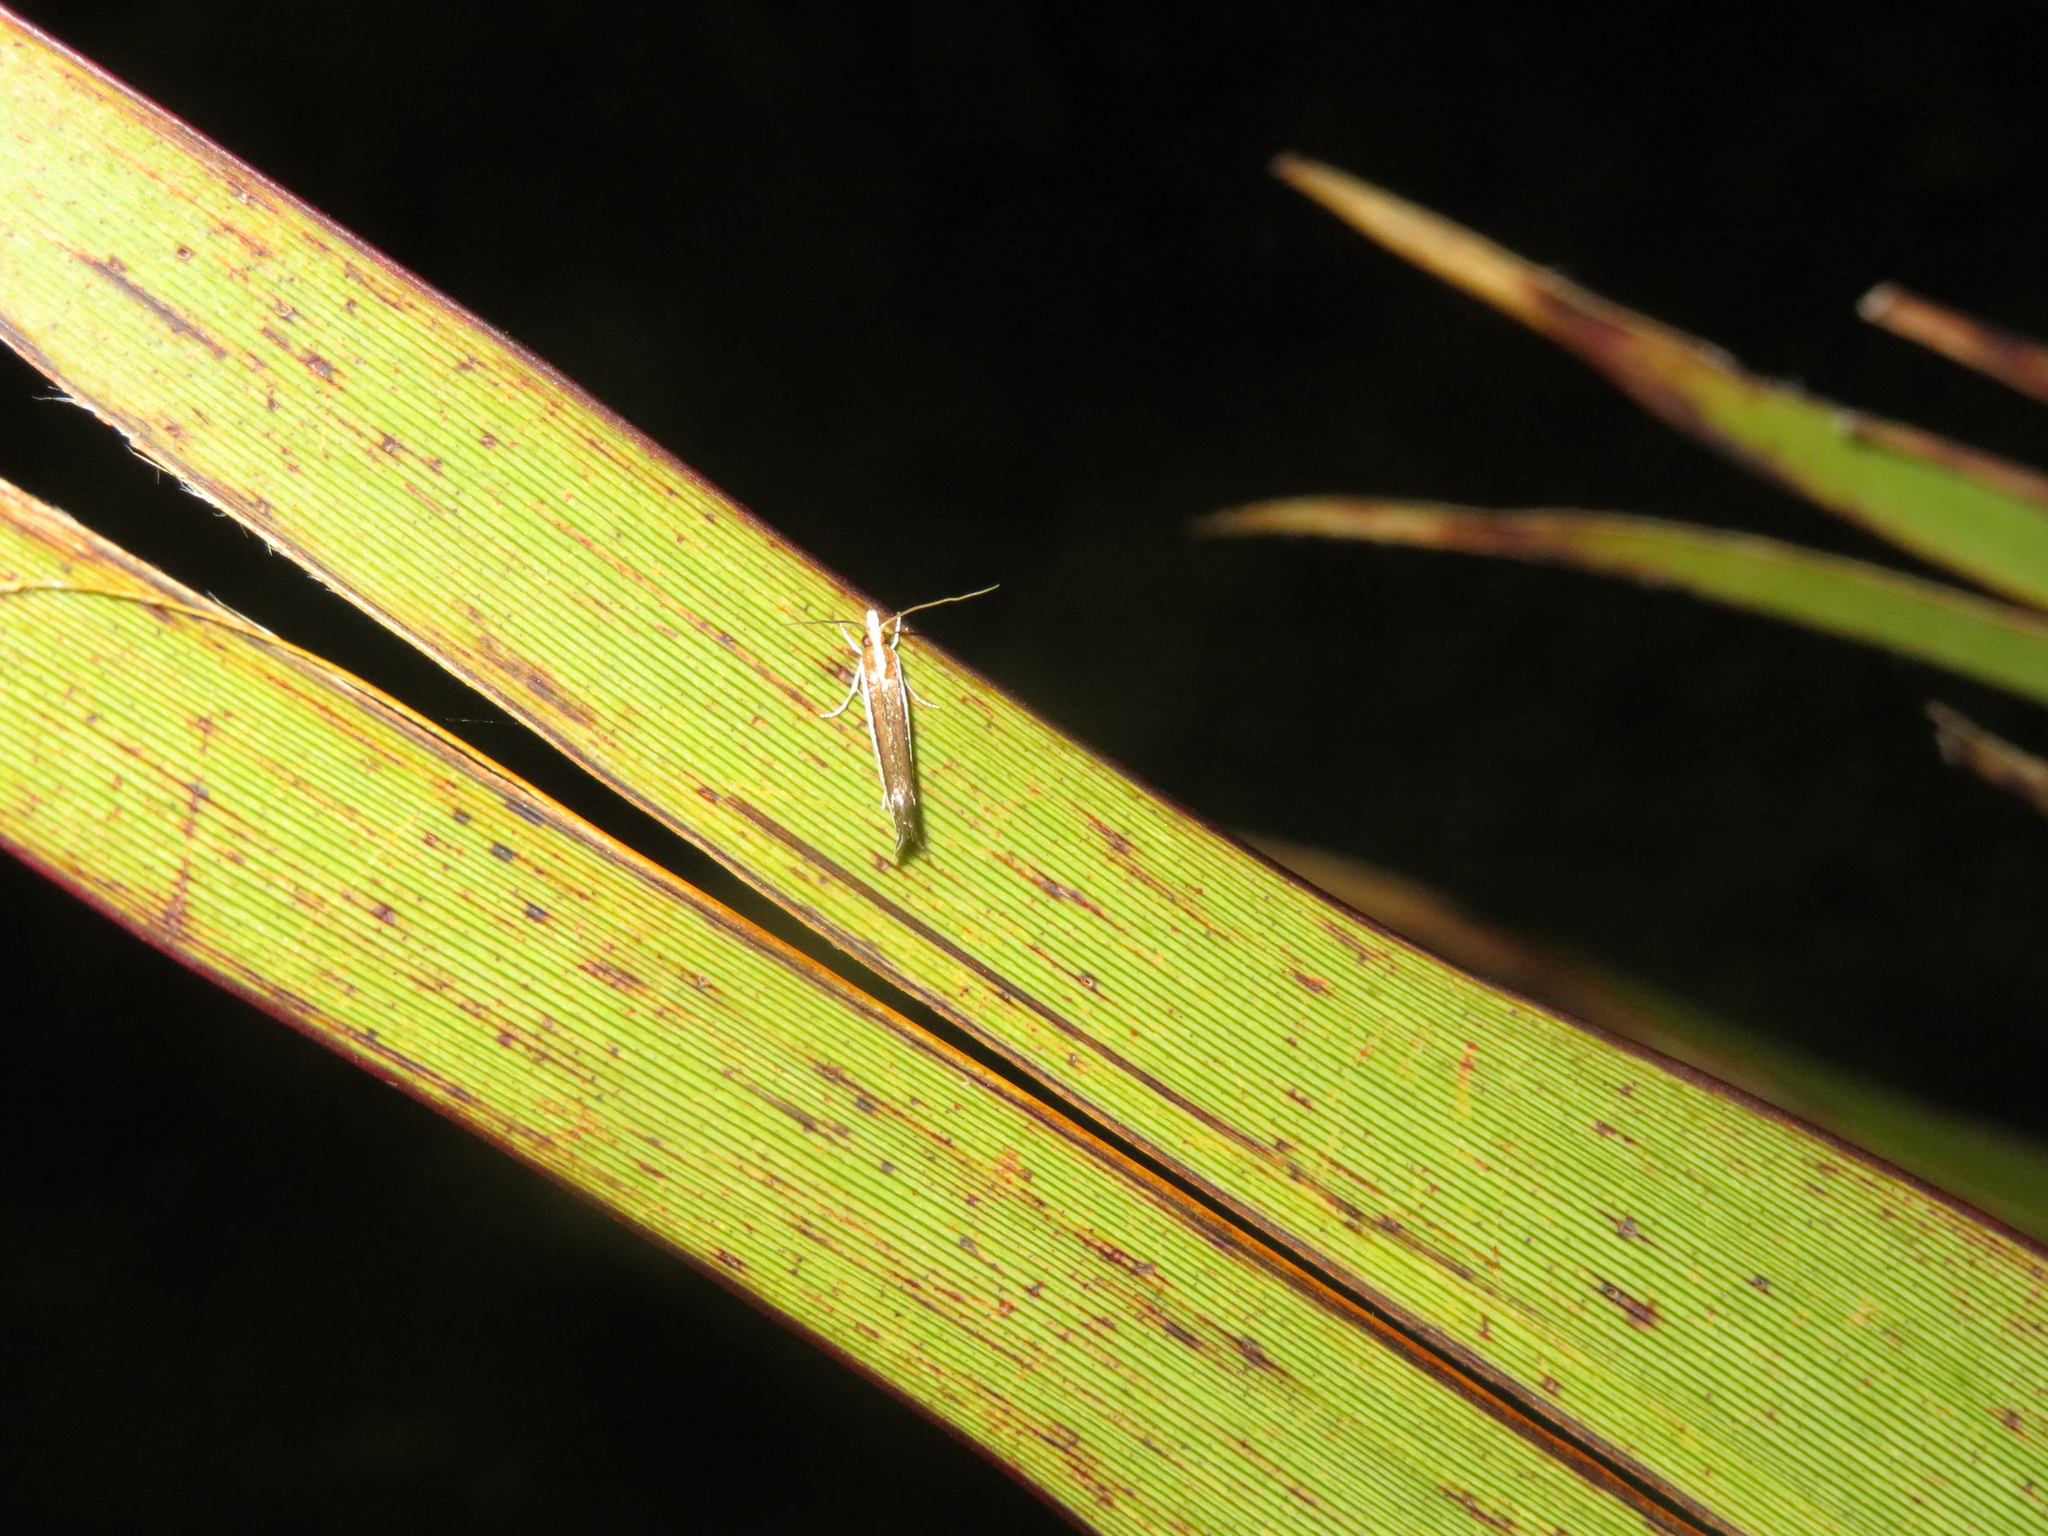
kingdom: Animalia
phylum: Arthropoda
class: Insecta
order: Lepidoptera
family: Tineidae
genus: Erechthias
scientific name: Erechthias chionodira
